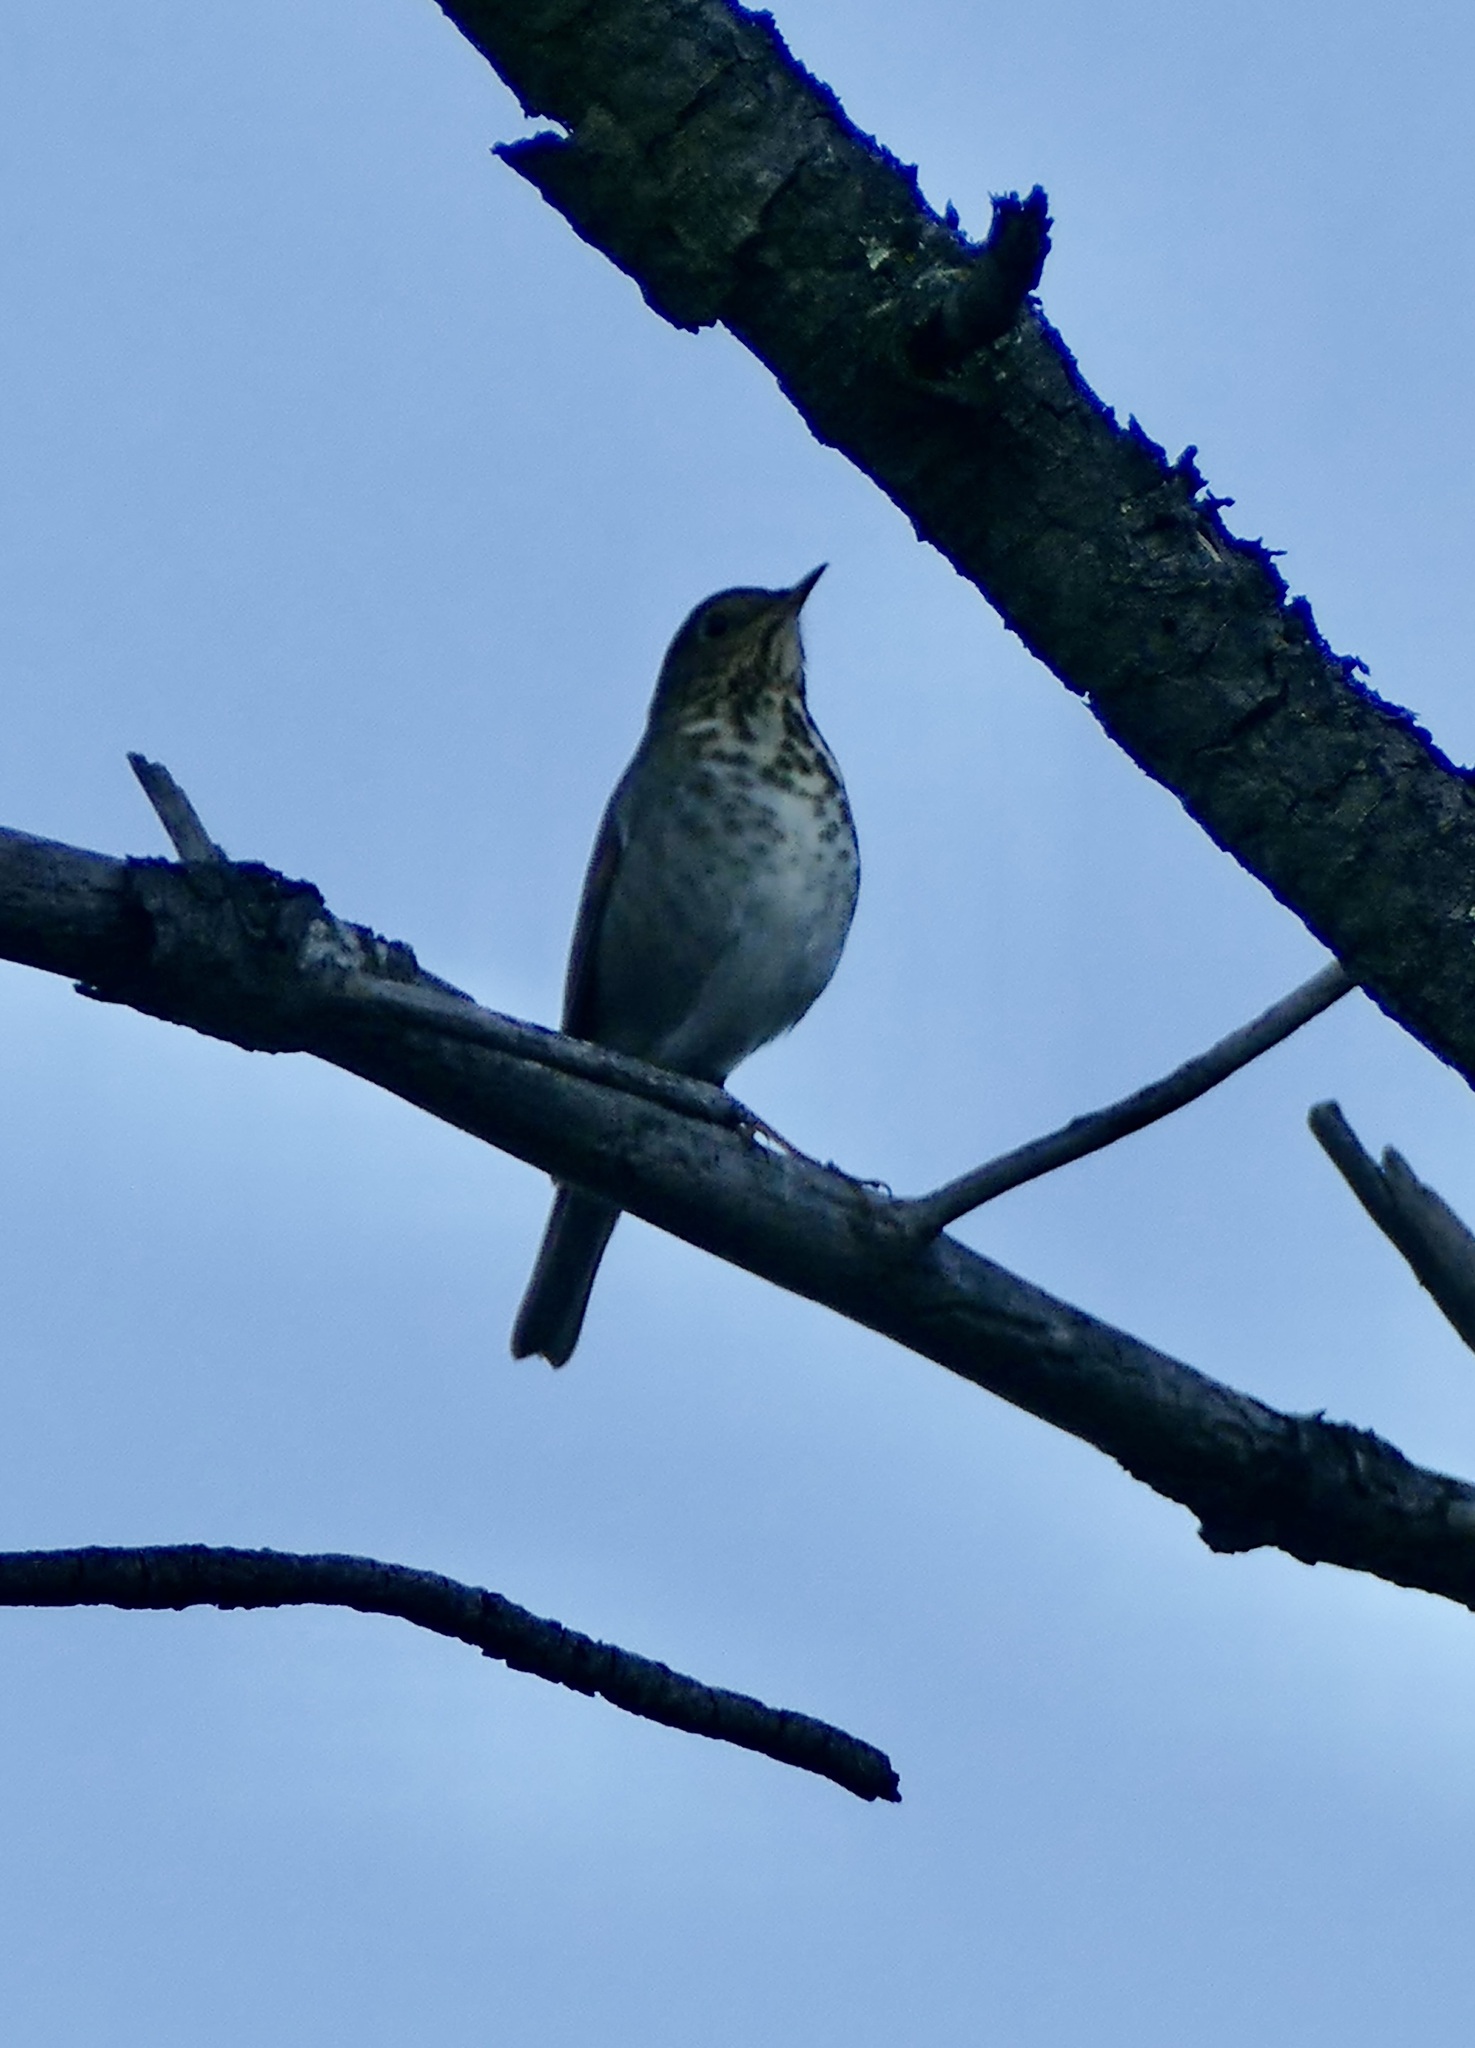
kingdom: Animalia
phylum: Chordata
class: Aves
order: Passeriformes
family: Turdidae
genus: Catharus
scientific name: Catharus guttatus
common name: Hermit thrush
